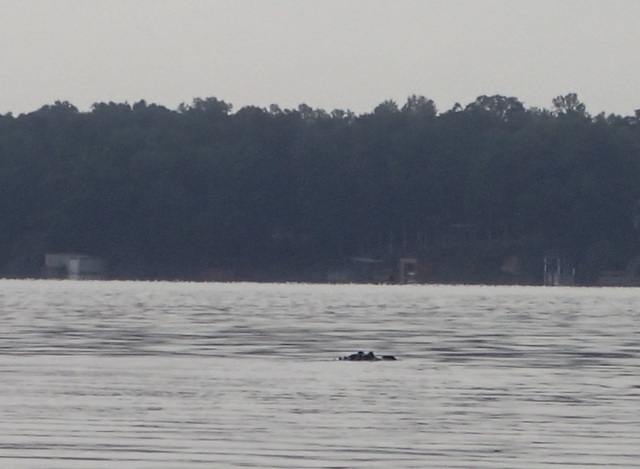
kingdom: Animalia
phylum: Chordata
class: Crocodylia
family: Alligatoridae
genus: Alligator
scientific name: Alligator mississippiensis
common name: American alligator
